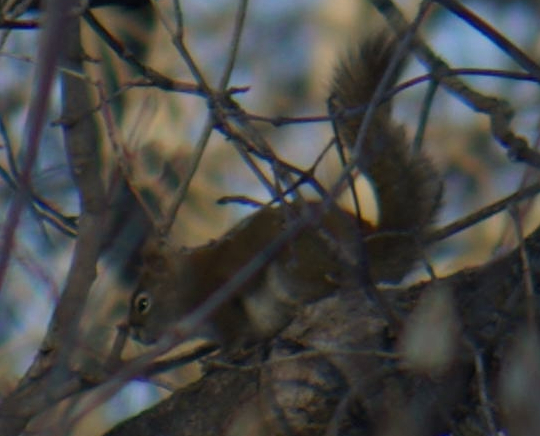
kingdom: Animalia
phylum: Chordata
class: Mammalia
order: Rodentia
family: Sciuridae
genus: Tamiasciurus
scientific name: Tamiasciurus hudsonicus
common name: Red squirrel
